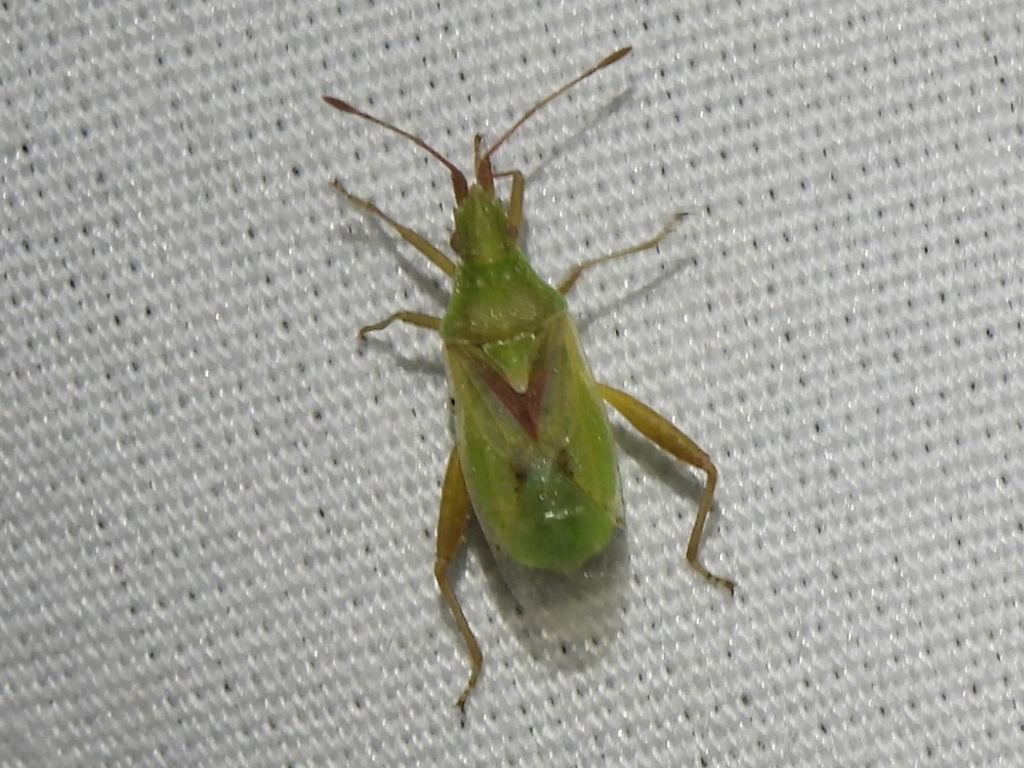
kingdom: Animalia
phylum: Arthropoda
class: Insecta
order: Hemiptera
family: Rhopalidae
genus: Harmostes
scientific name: Harmostes reflexulus
